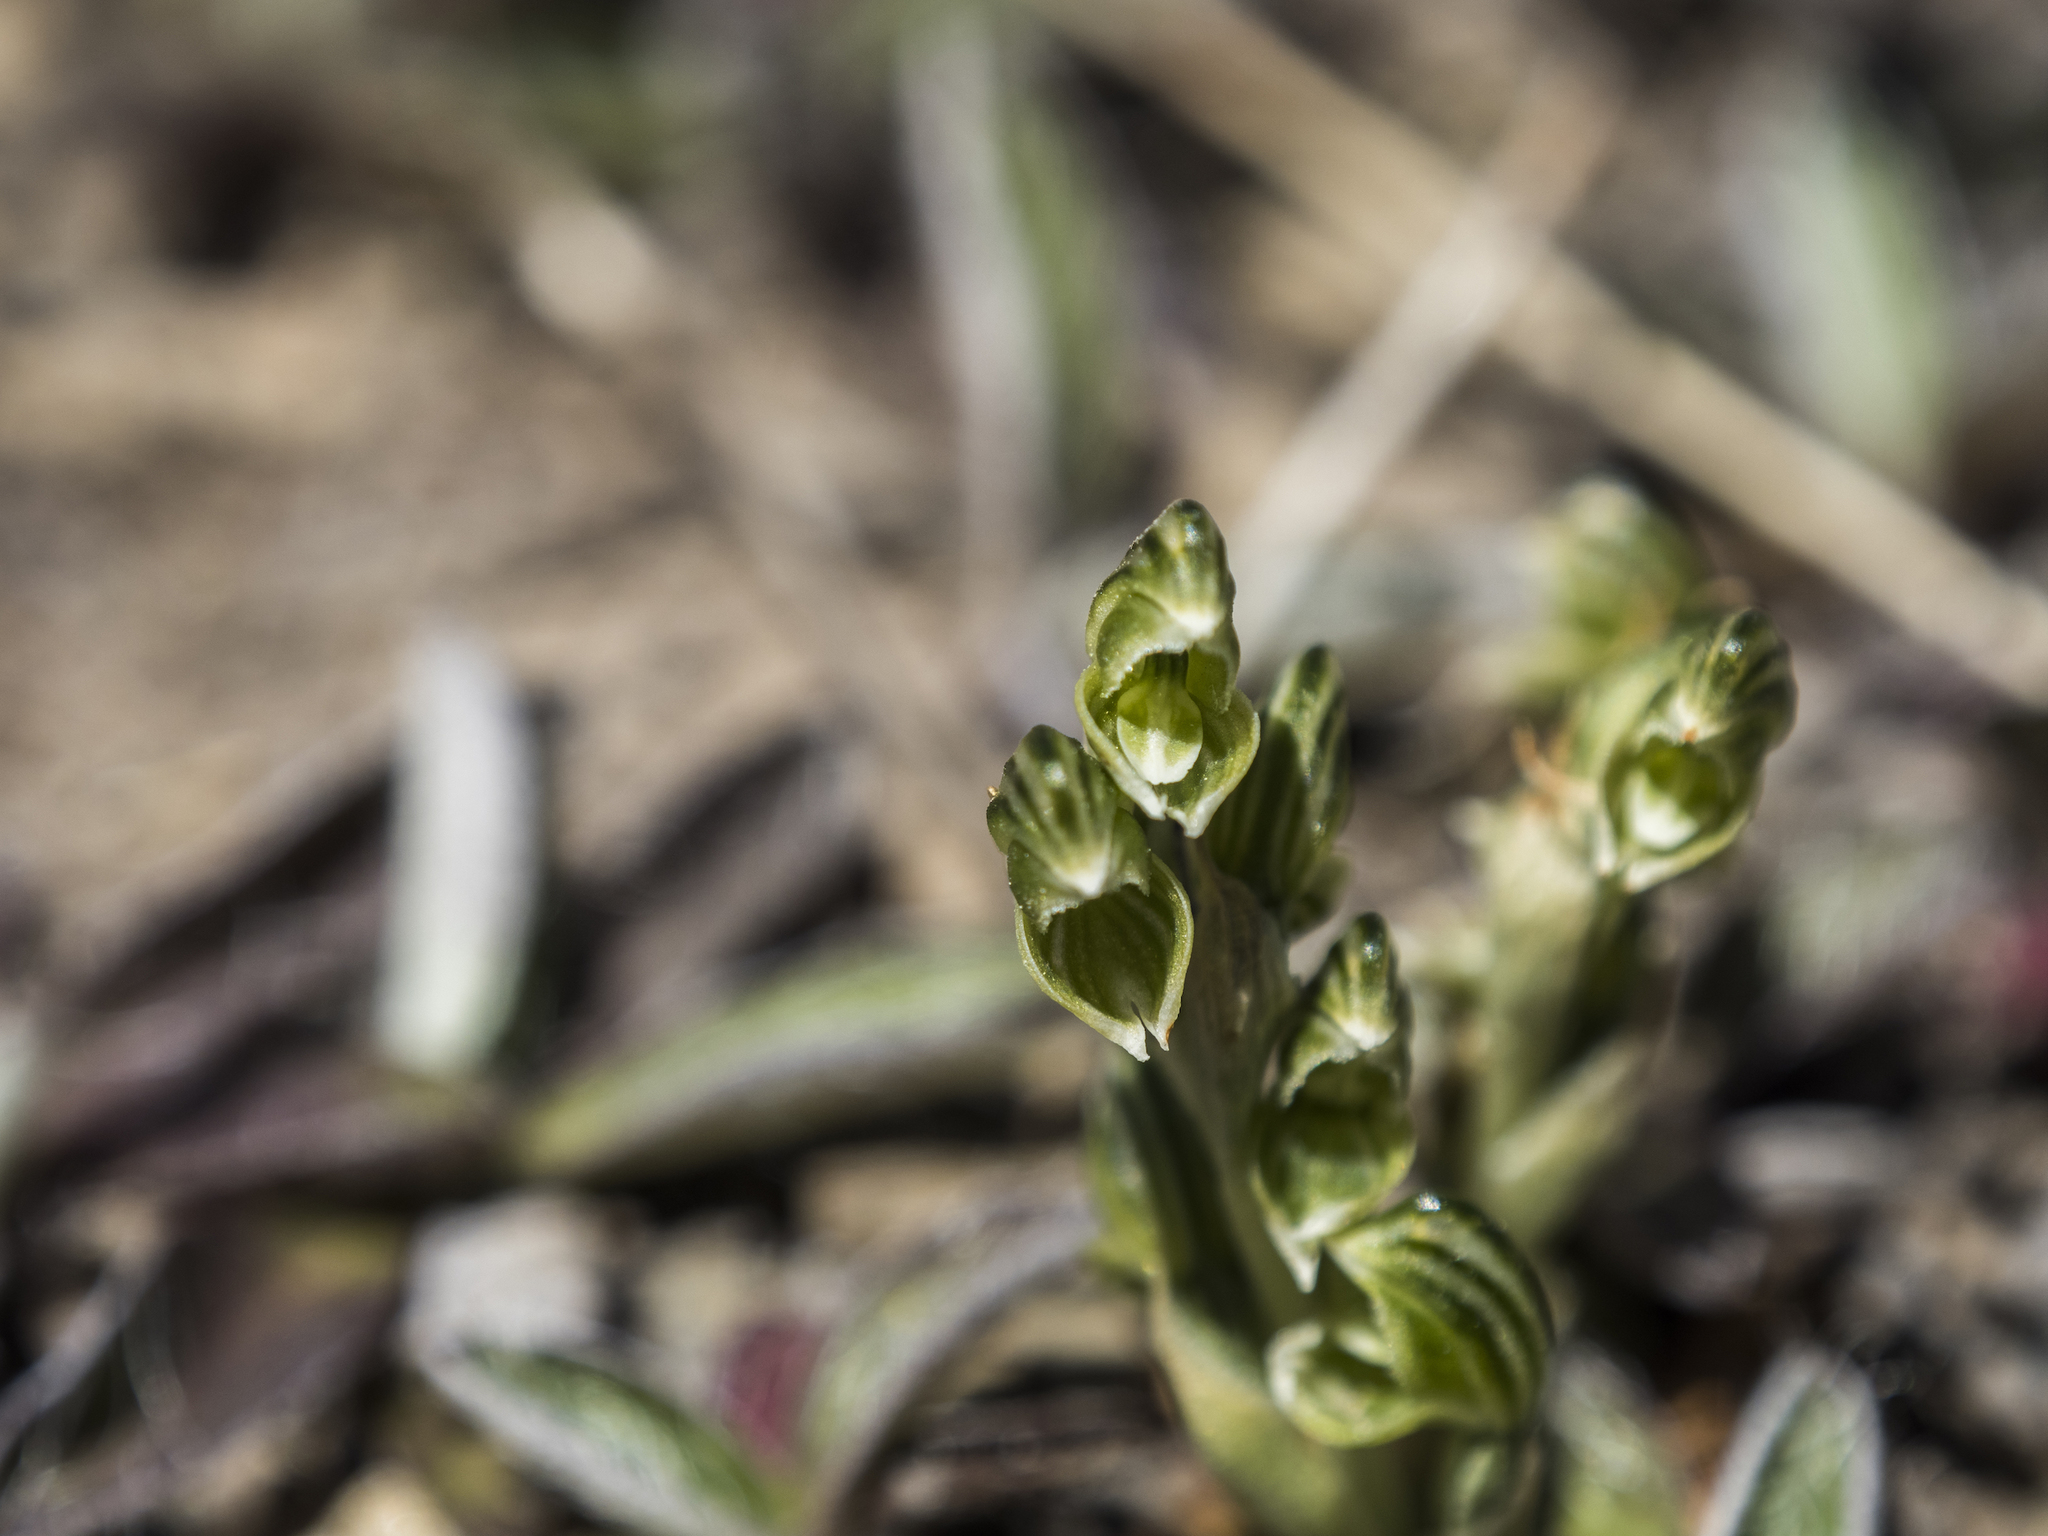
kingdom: Plantae
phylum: Tracheophyta
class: Liliopsida
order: Asparagales
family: Orchidaceae
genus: Pterostylis
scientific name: Pterostylis tanypoda
